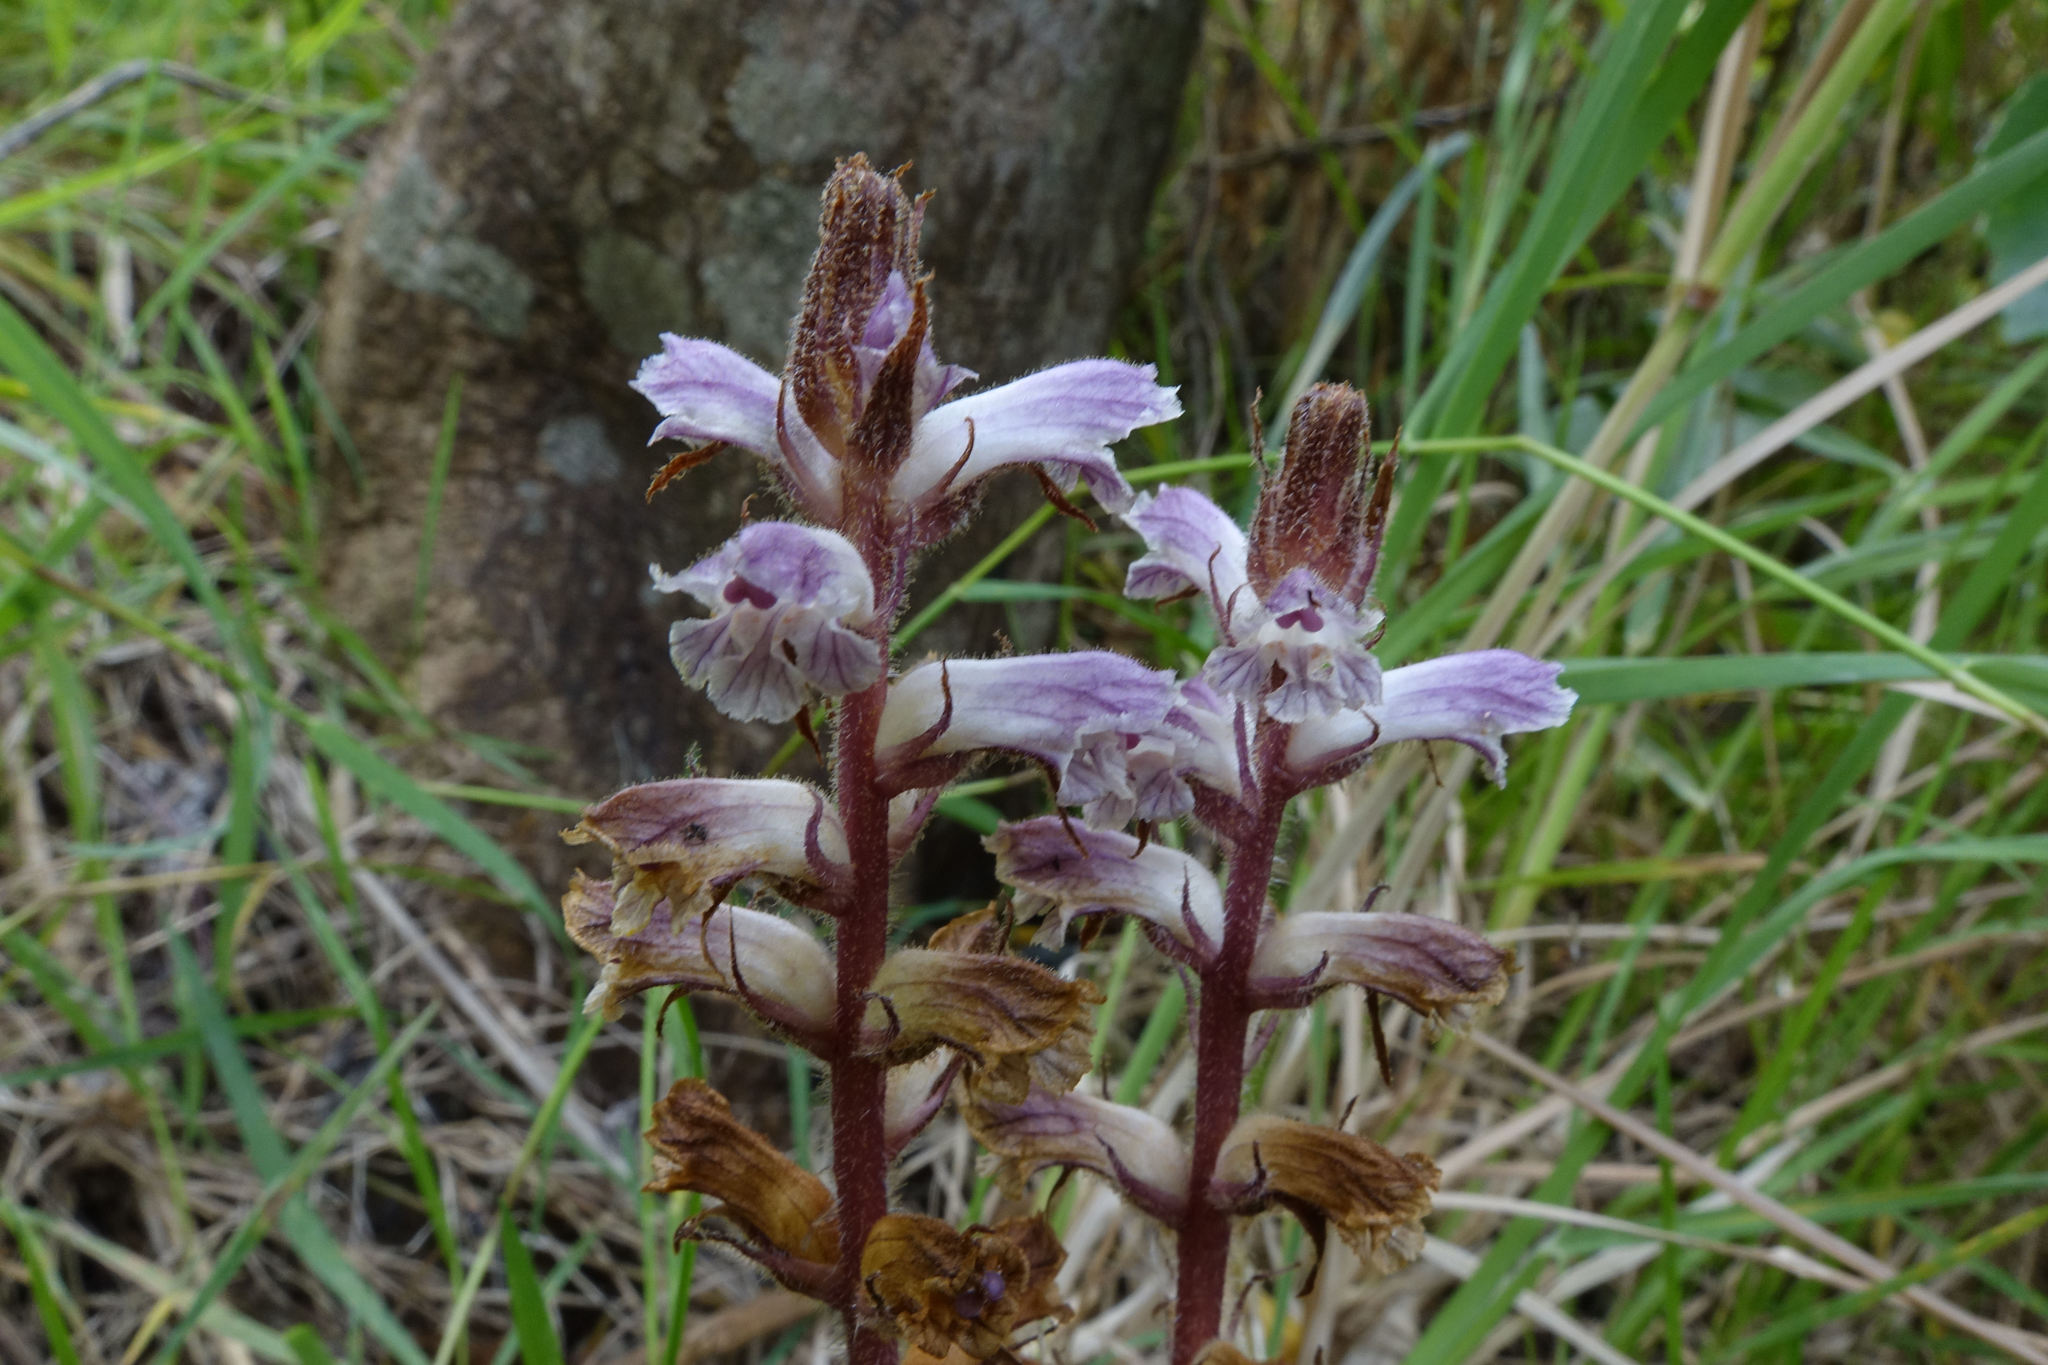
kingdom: Plantae
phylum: Tracheophyta
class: Magnoliopsida
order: Lamiales
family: Orobanchaceae
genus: Orobanche
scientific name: Orobanche minor
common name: Common broomrape
